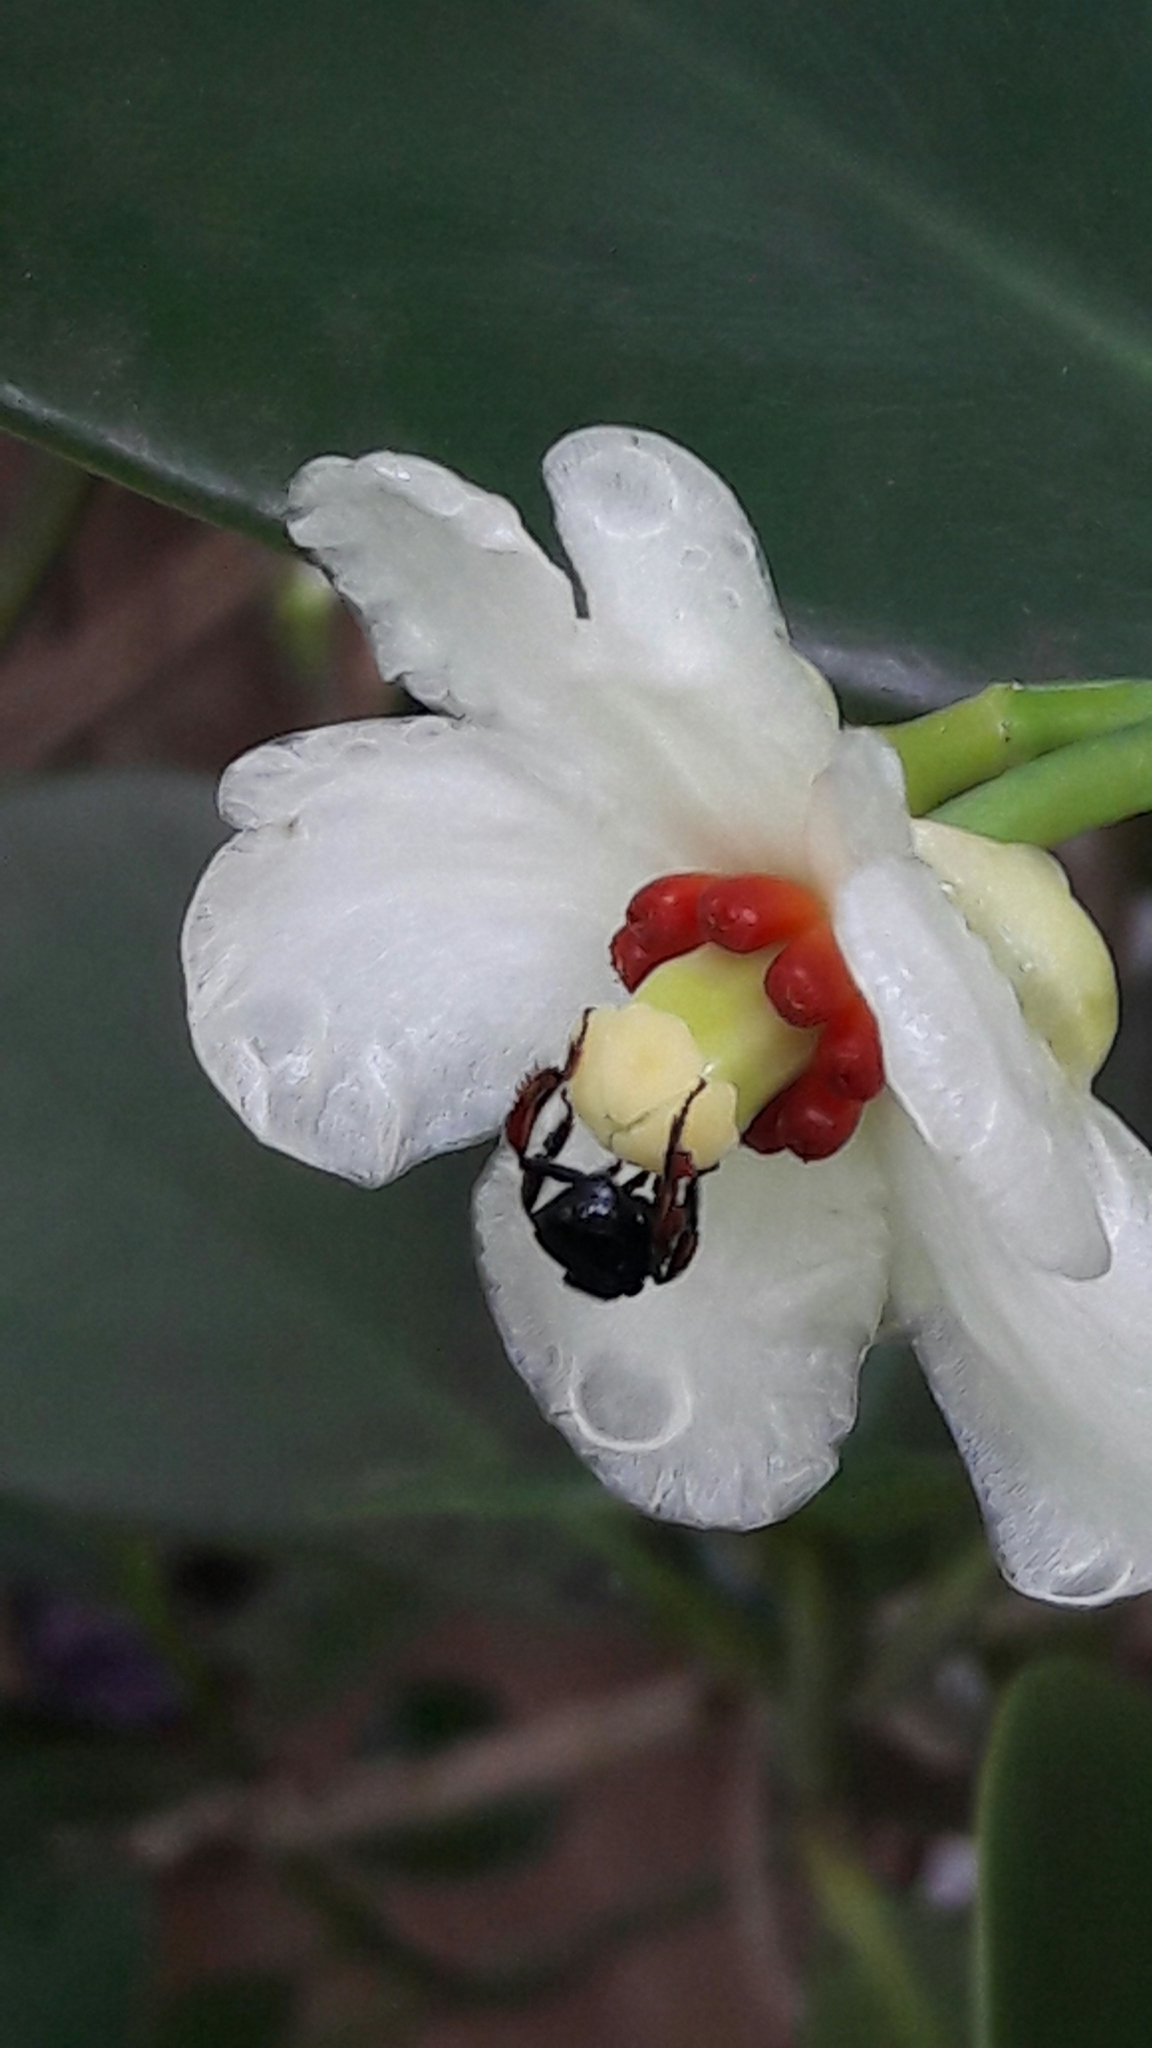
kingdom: Animalia
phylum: Arthropoda
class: Insecta
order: Hymenoptera
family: Apidae
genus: Trigona
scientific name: Trigona spinipes
